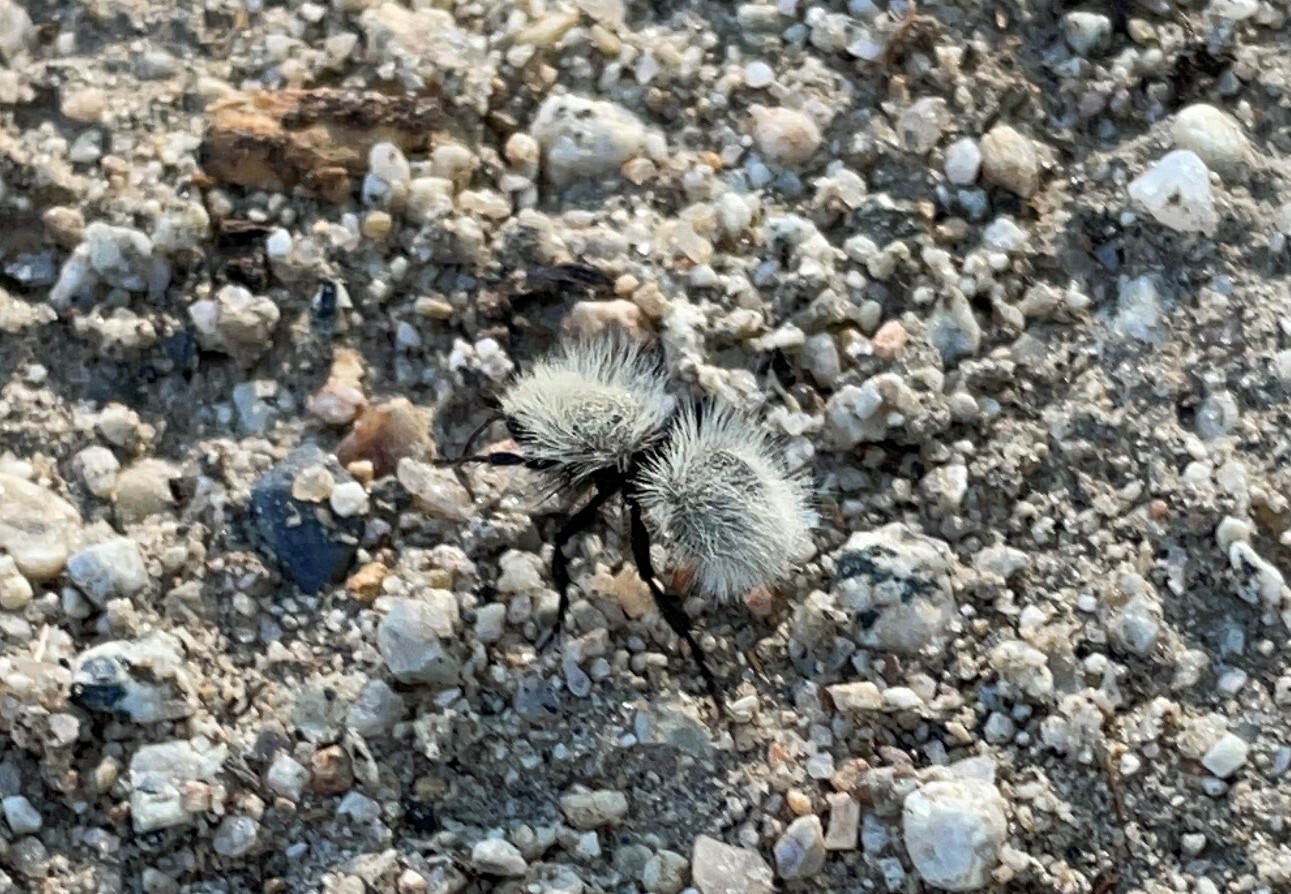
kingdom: Animalia
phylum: Arthropoda
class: Insecta
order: Hymenoptera
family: Mutillidae
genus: Dasymutilla
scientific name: Dasymutilla pseudopappus
